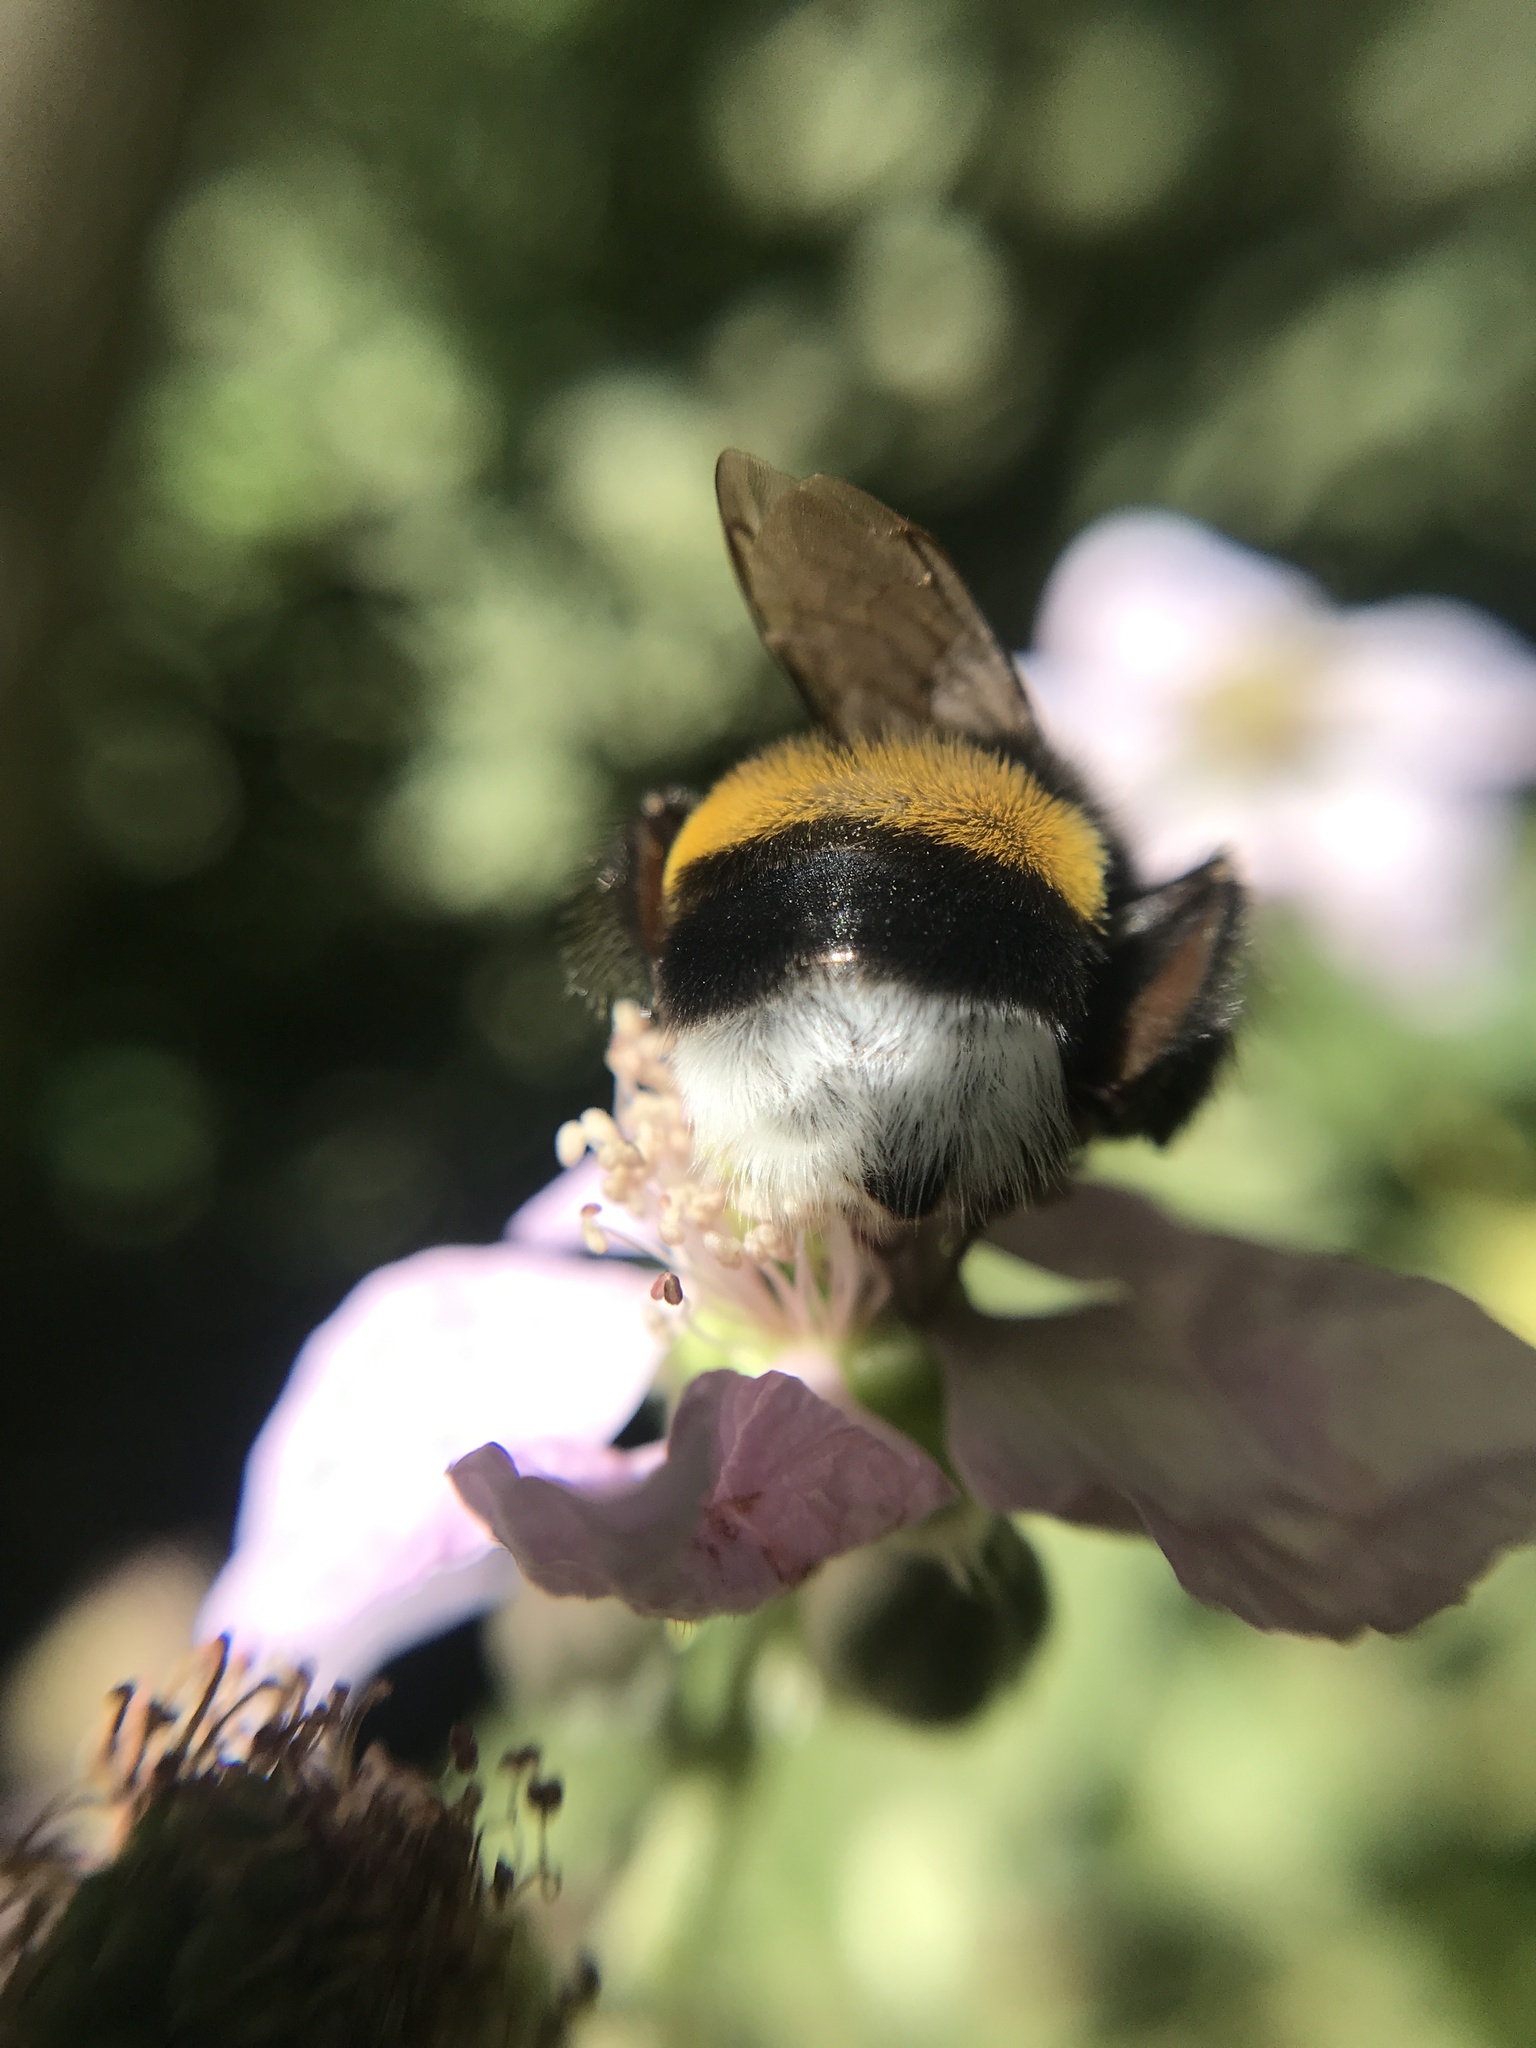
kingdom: Animalia
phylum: Arthropoda
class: Insecta
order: Hymenoptera
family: Apidae
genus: Bombus
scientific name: Bombus terrestris
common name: Buff-tailed bumblebee
